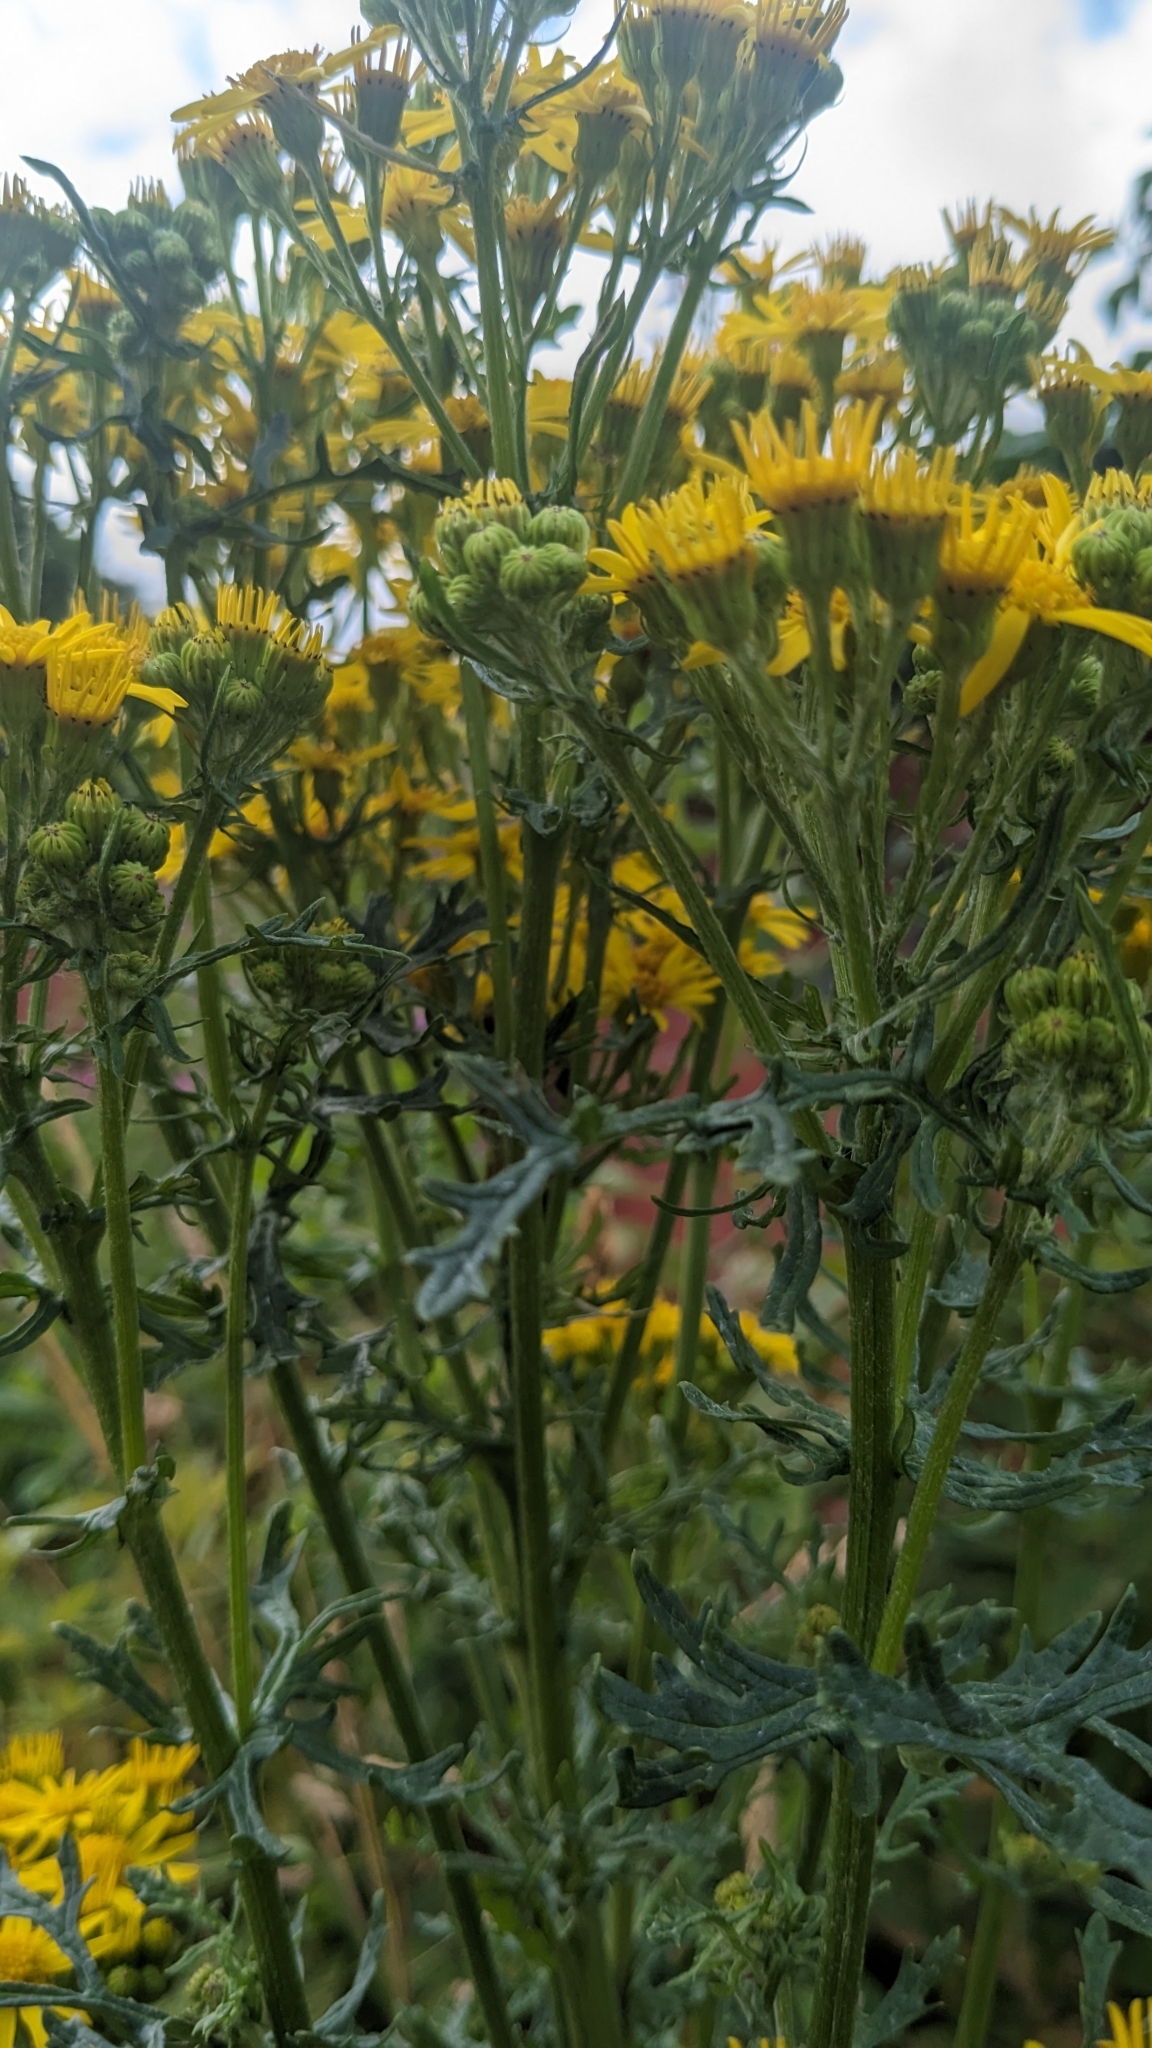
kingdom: Plantae
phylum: Tracheophyta
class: Magnoliopsida
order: Asterales
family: Asteraceae
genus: Jacobaea
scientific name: Jacobaea vulgaris
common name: Stinking willie
